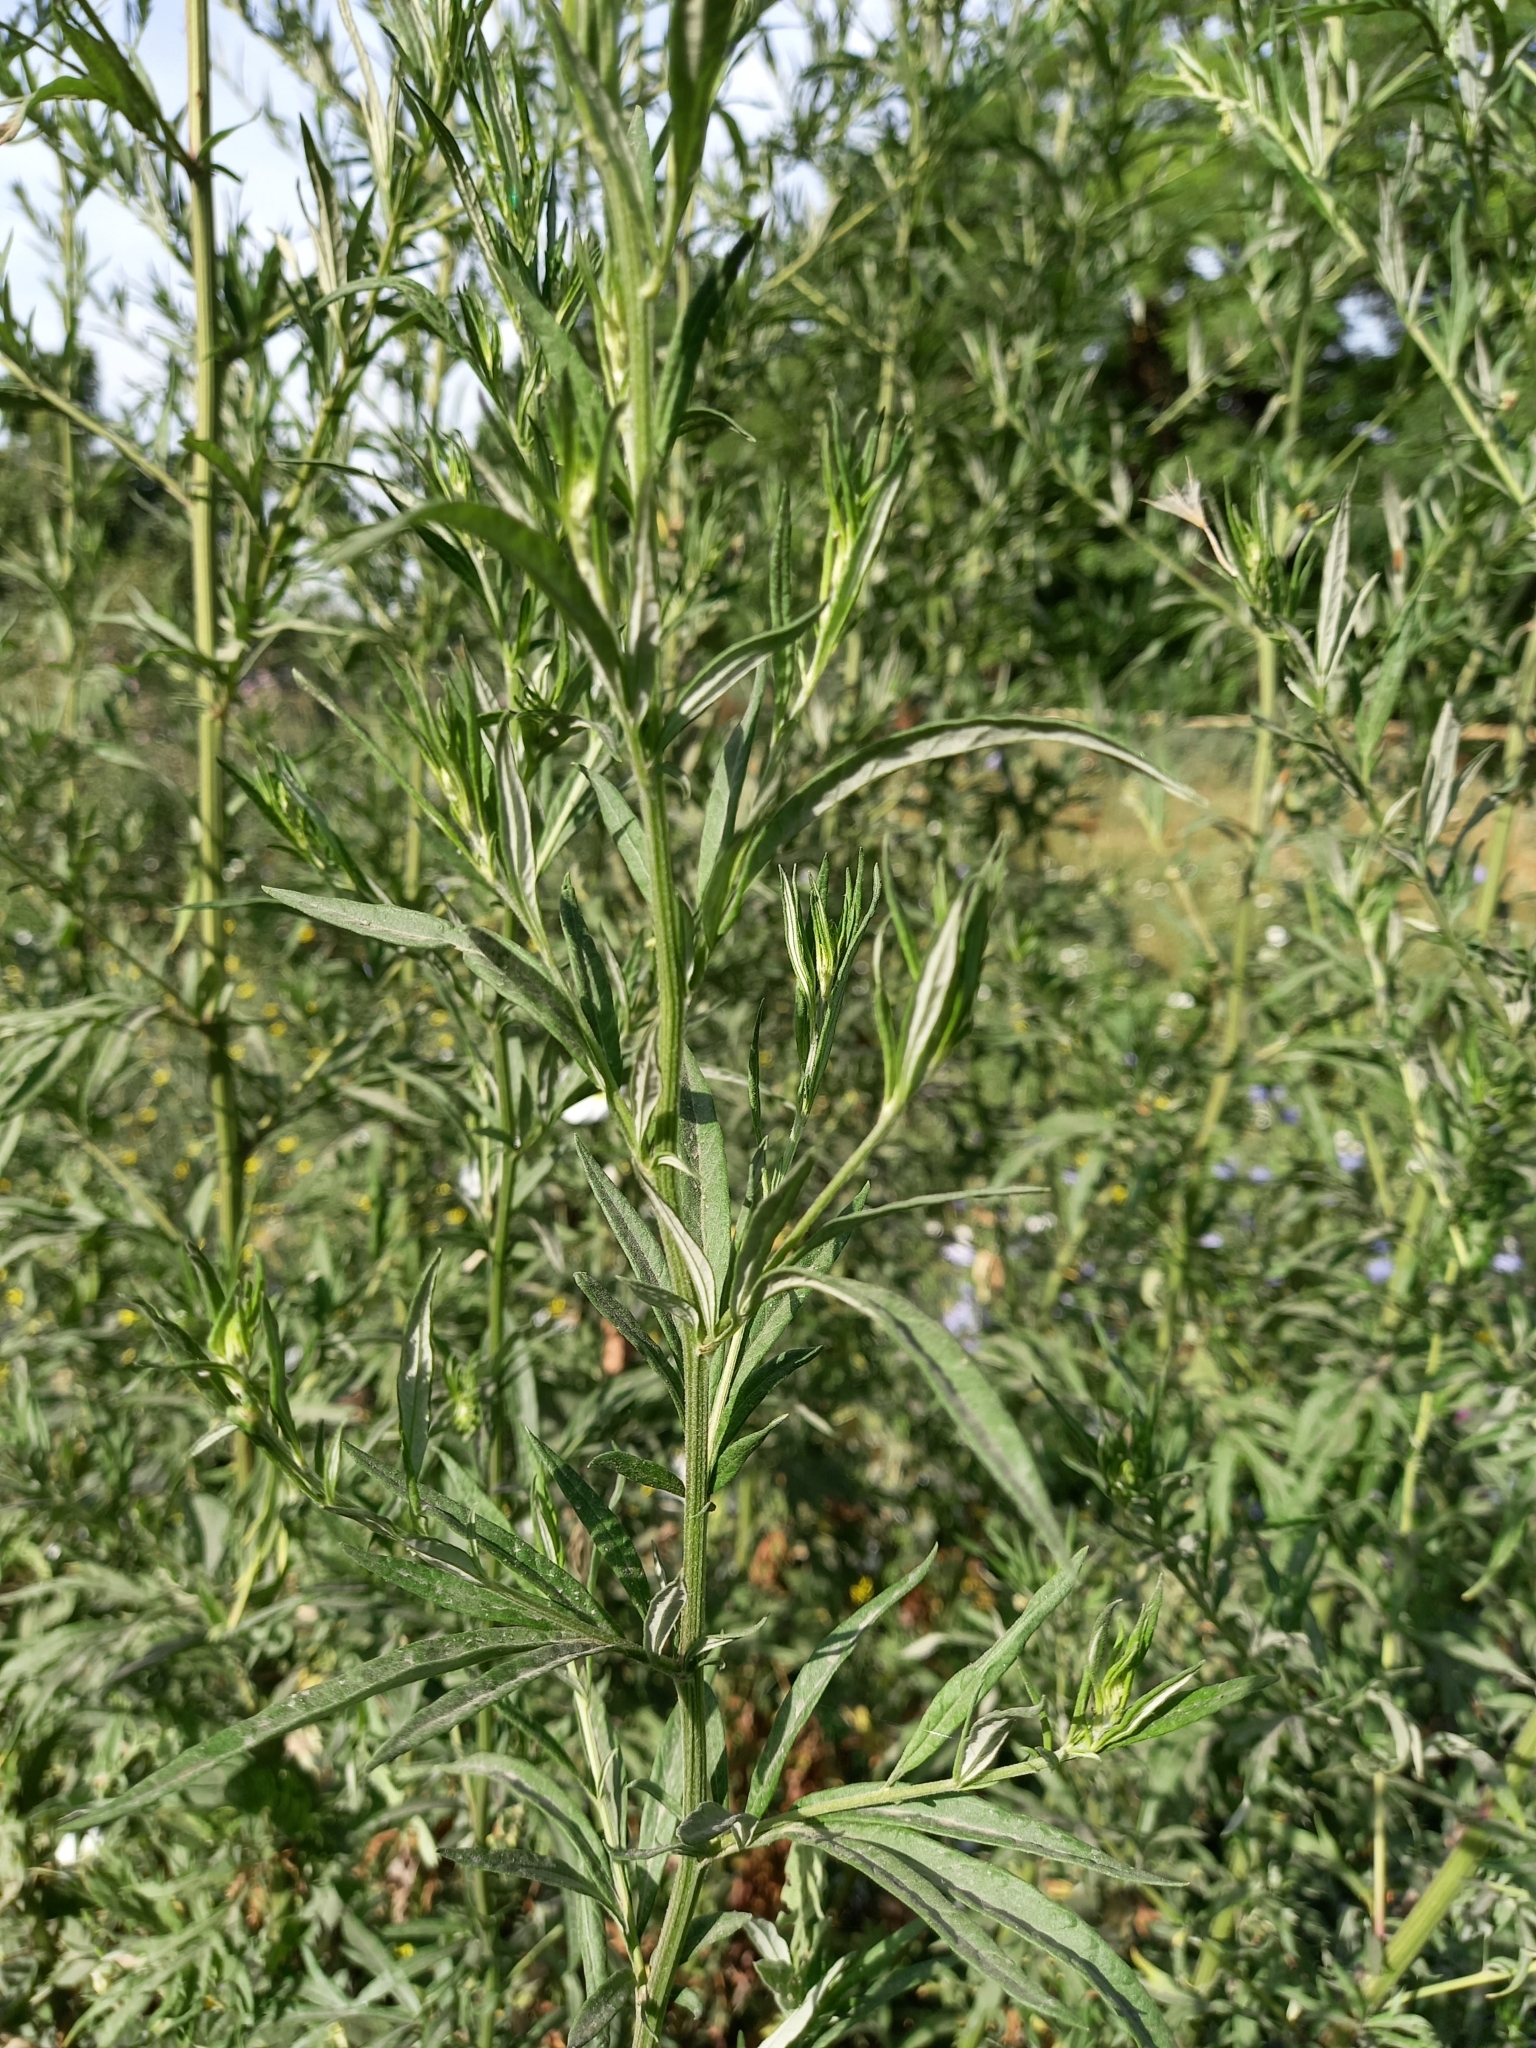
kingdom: Plantae
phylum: Tracheophyta
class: Magnoliopsida
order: Asterales
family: Asteraceae
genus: Artemisia
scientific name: Artemisia vulgaris
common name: Mugwort
